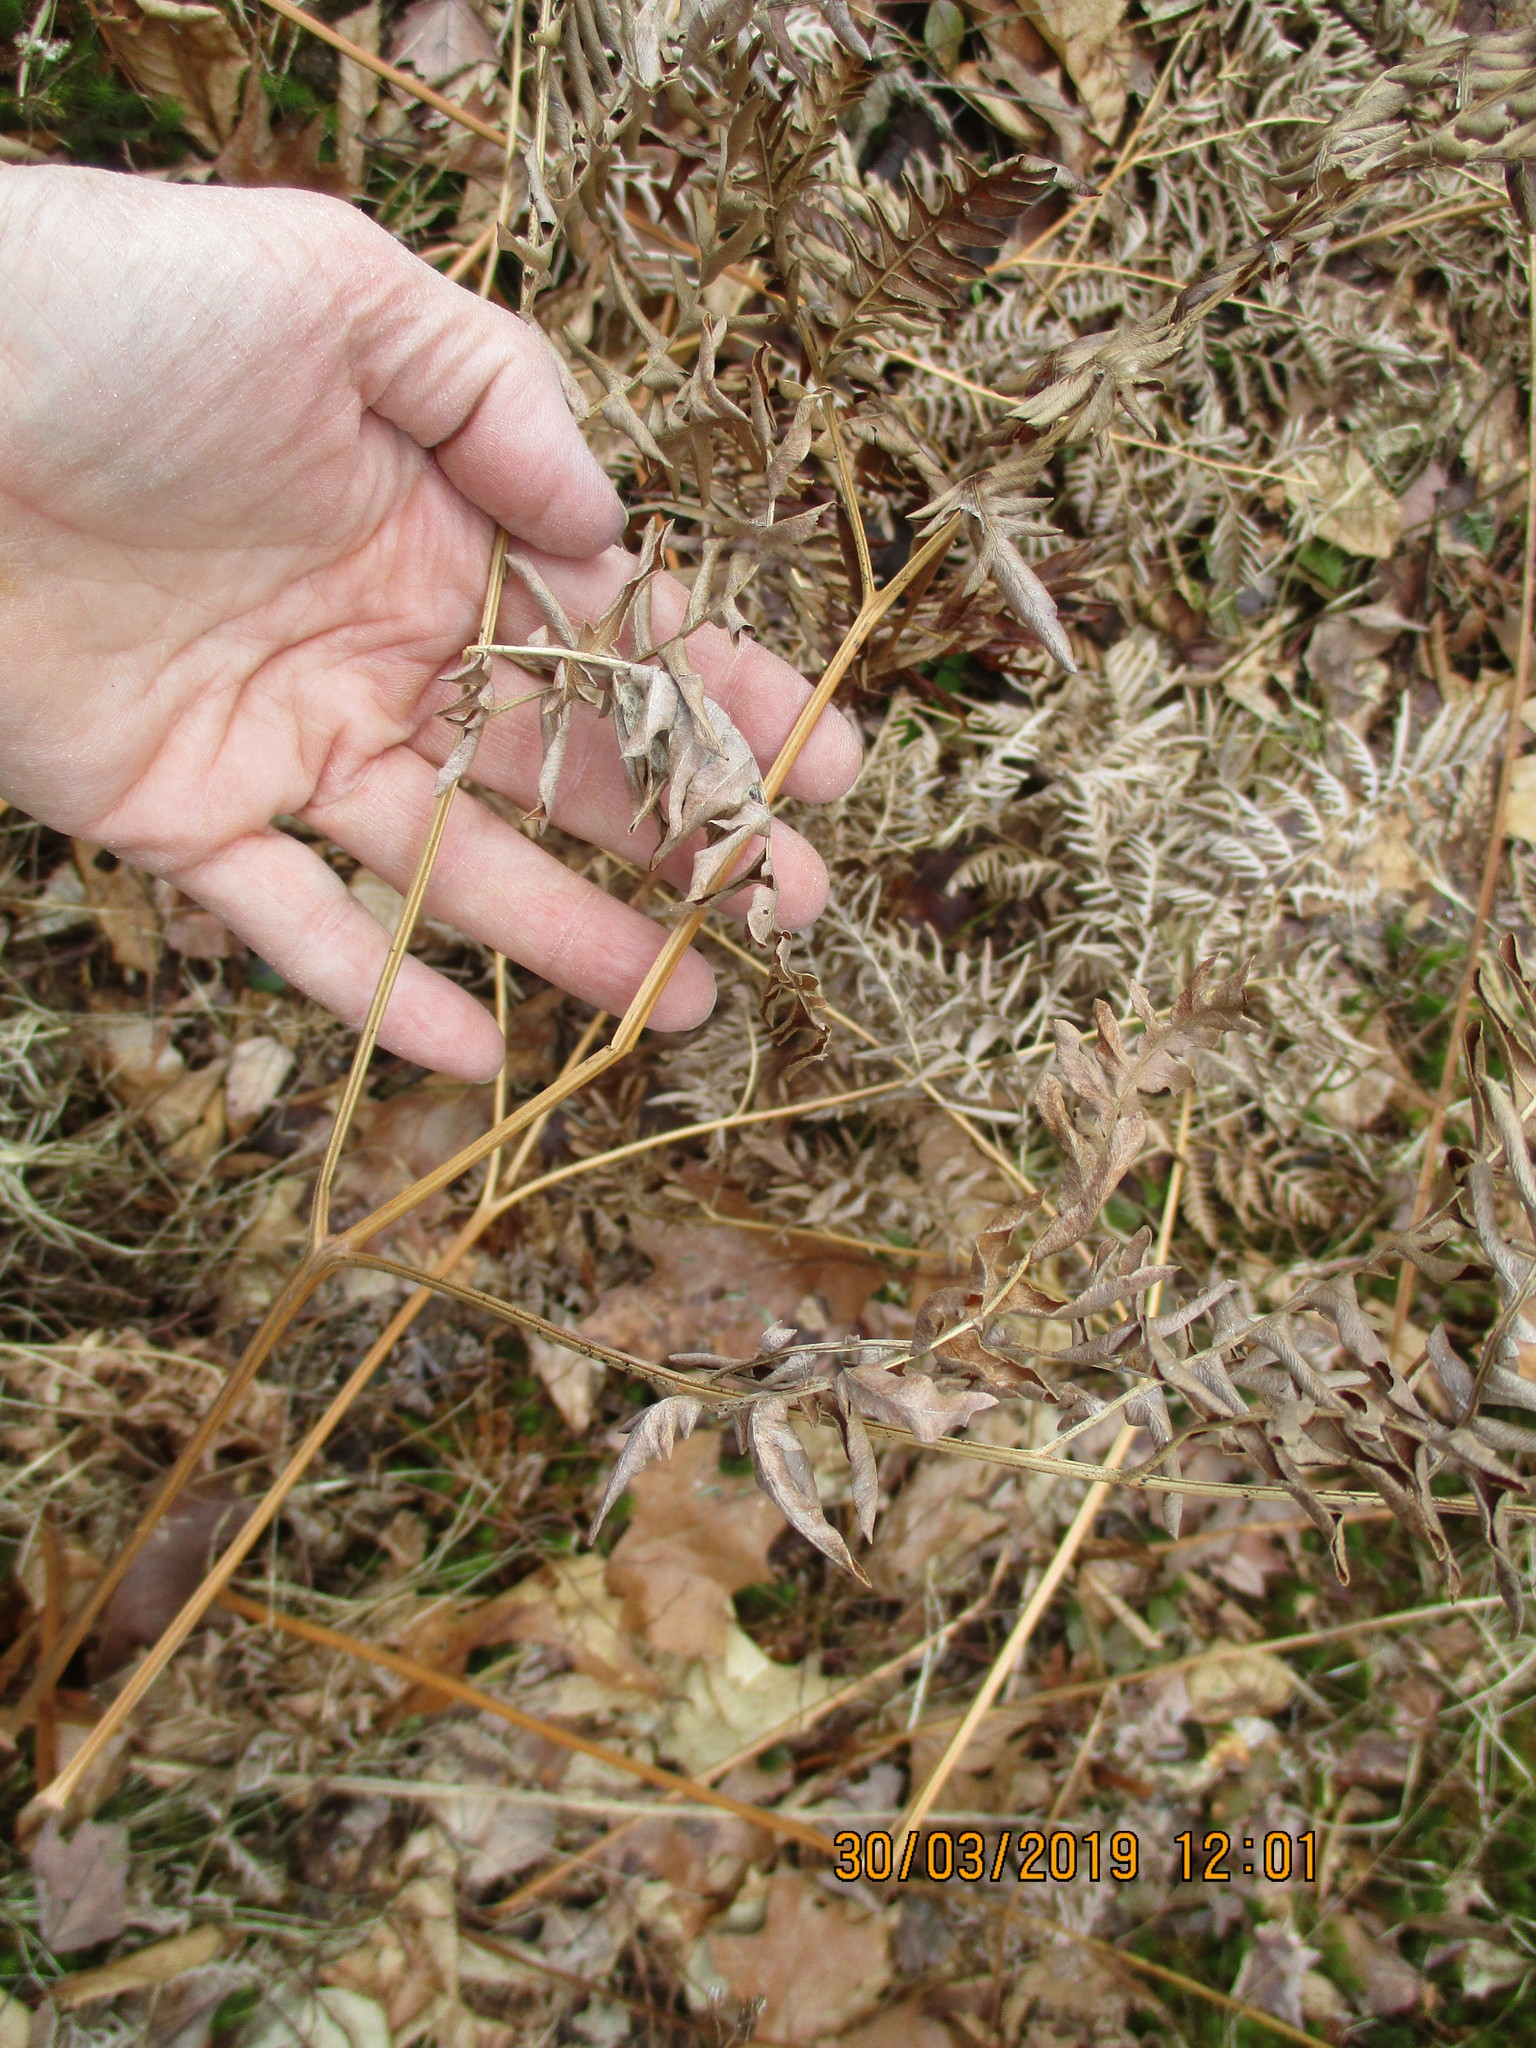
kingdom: Plantae
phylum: Tracheophyta
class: Polypodiopsida
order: Polypodiales
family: Dennstaedtiaceae
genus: Pteridium
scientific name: Pteridium aquilinum
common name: Bracken
